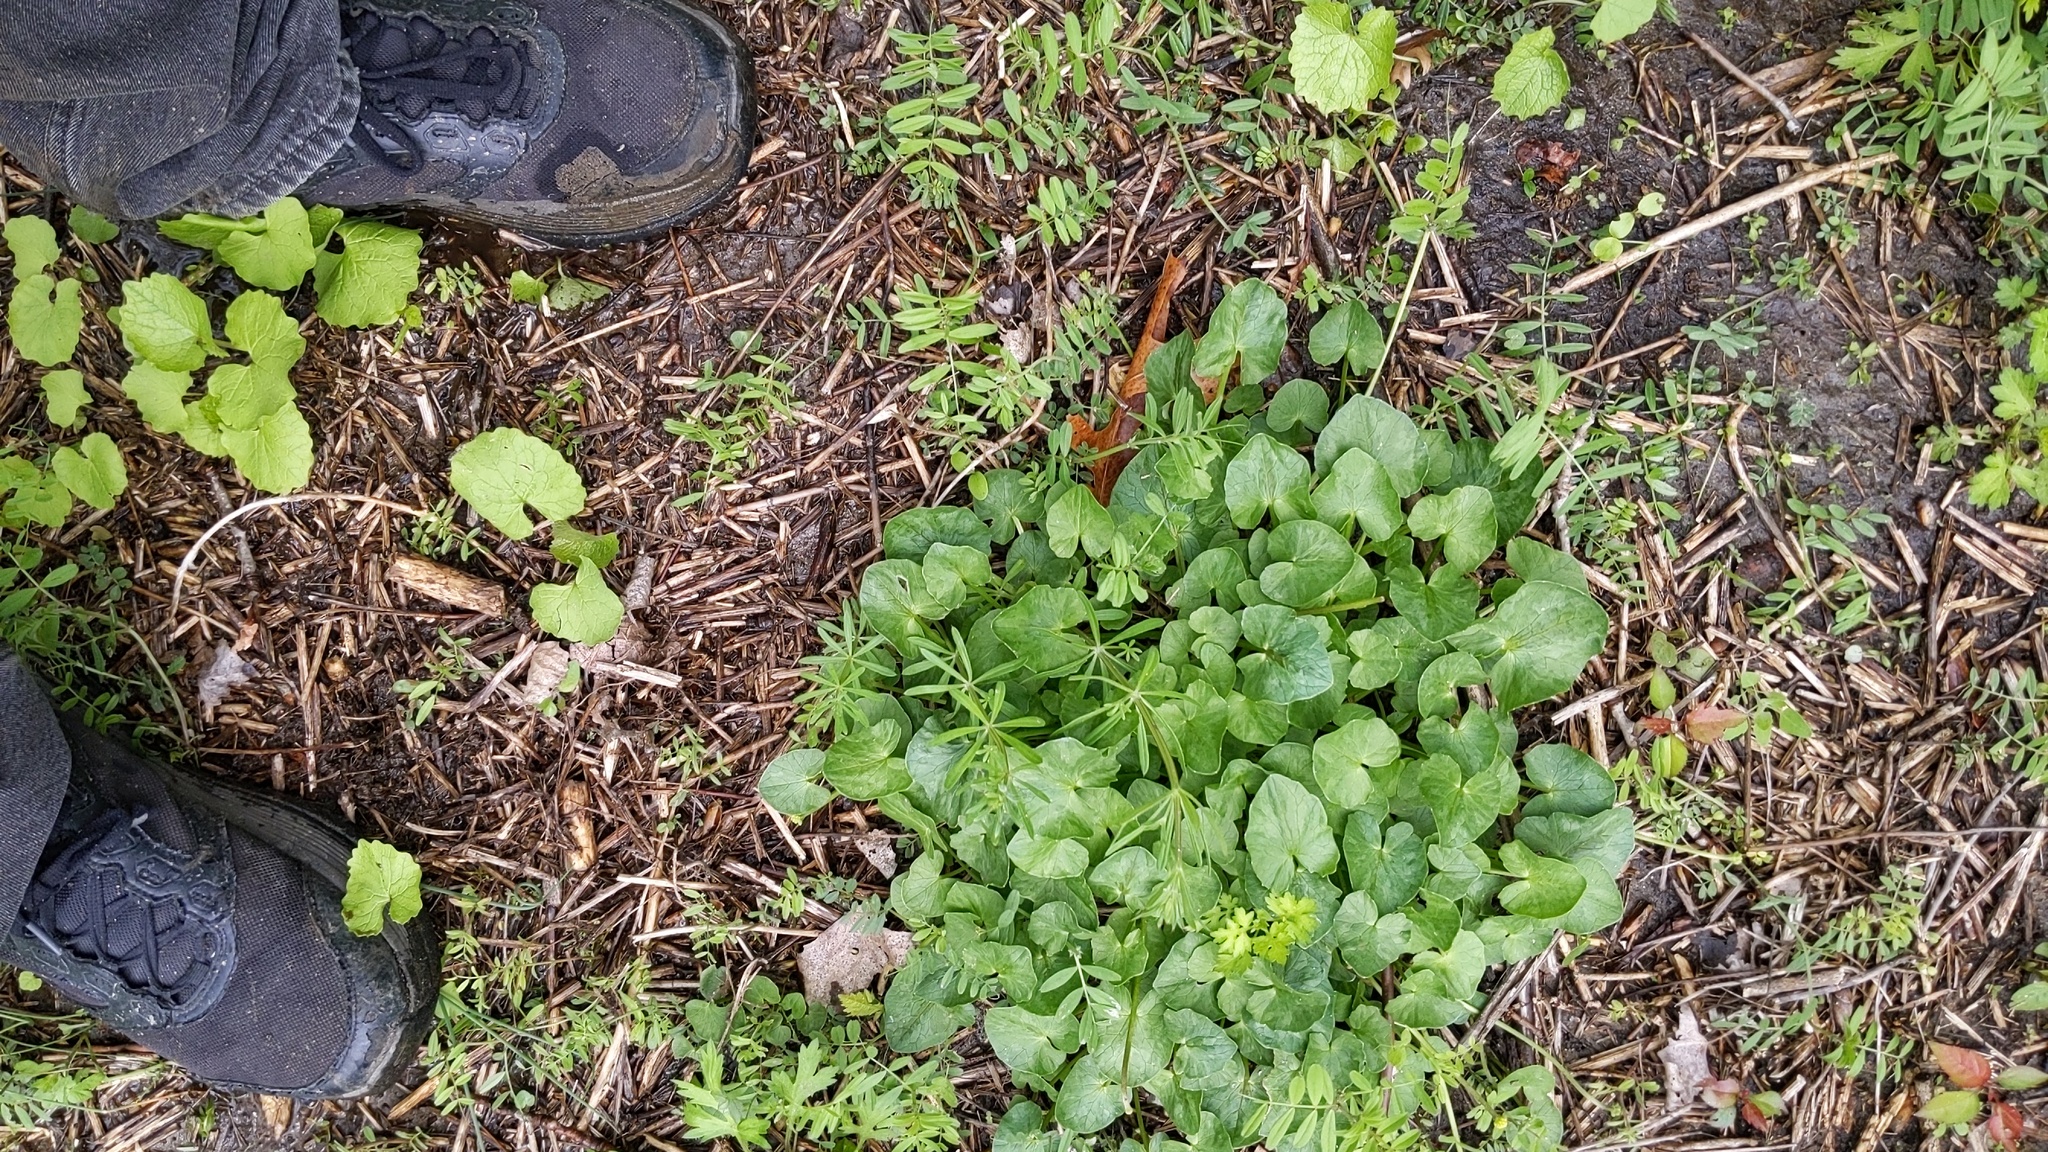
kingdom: Plantae
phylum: Tracheophyta
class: Magnoliopsida
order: Ranunculales
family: Ranunculaceae
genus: Ficaria
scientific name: Ficaria verna
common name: Lesser celandine
